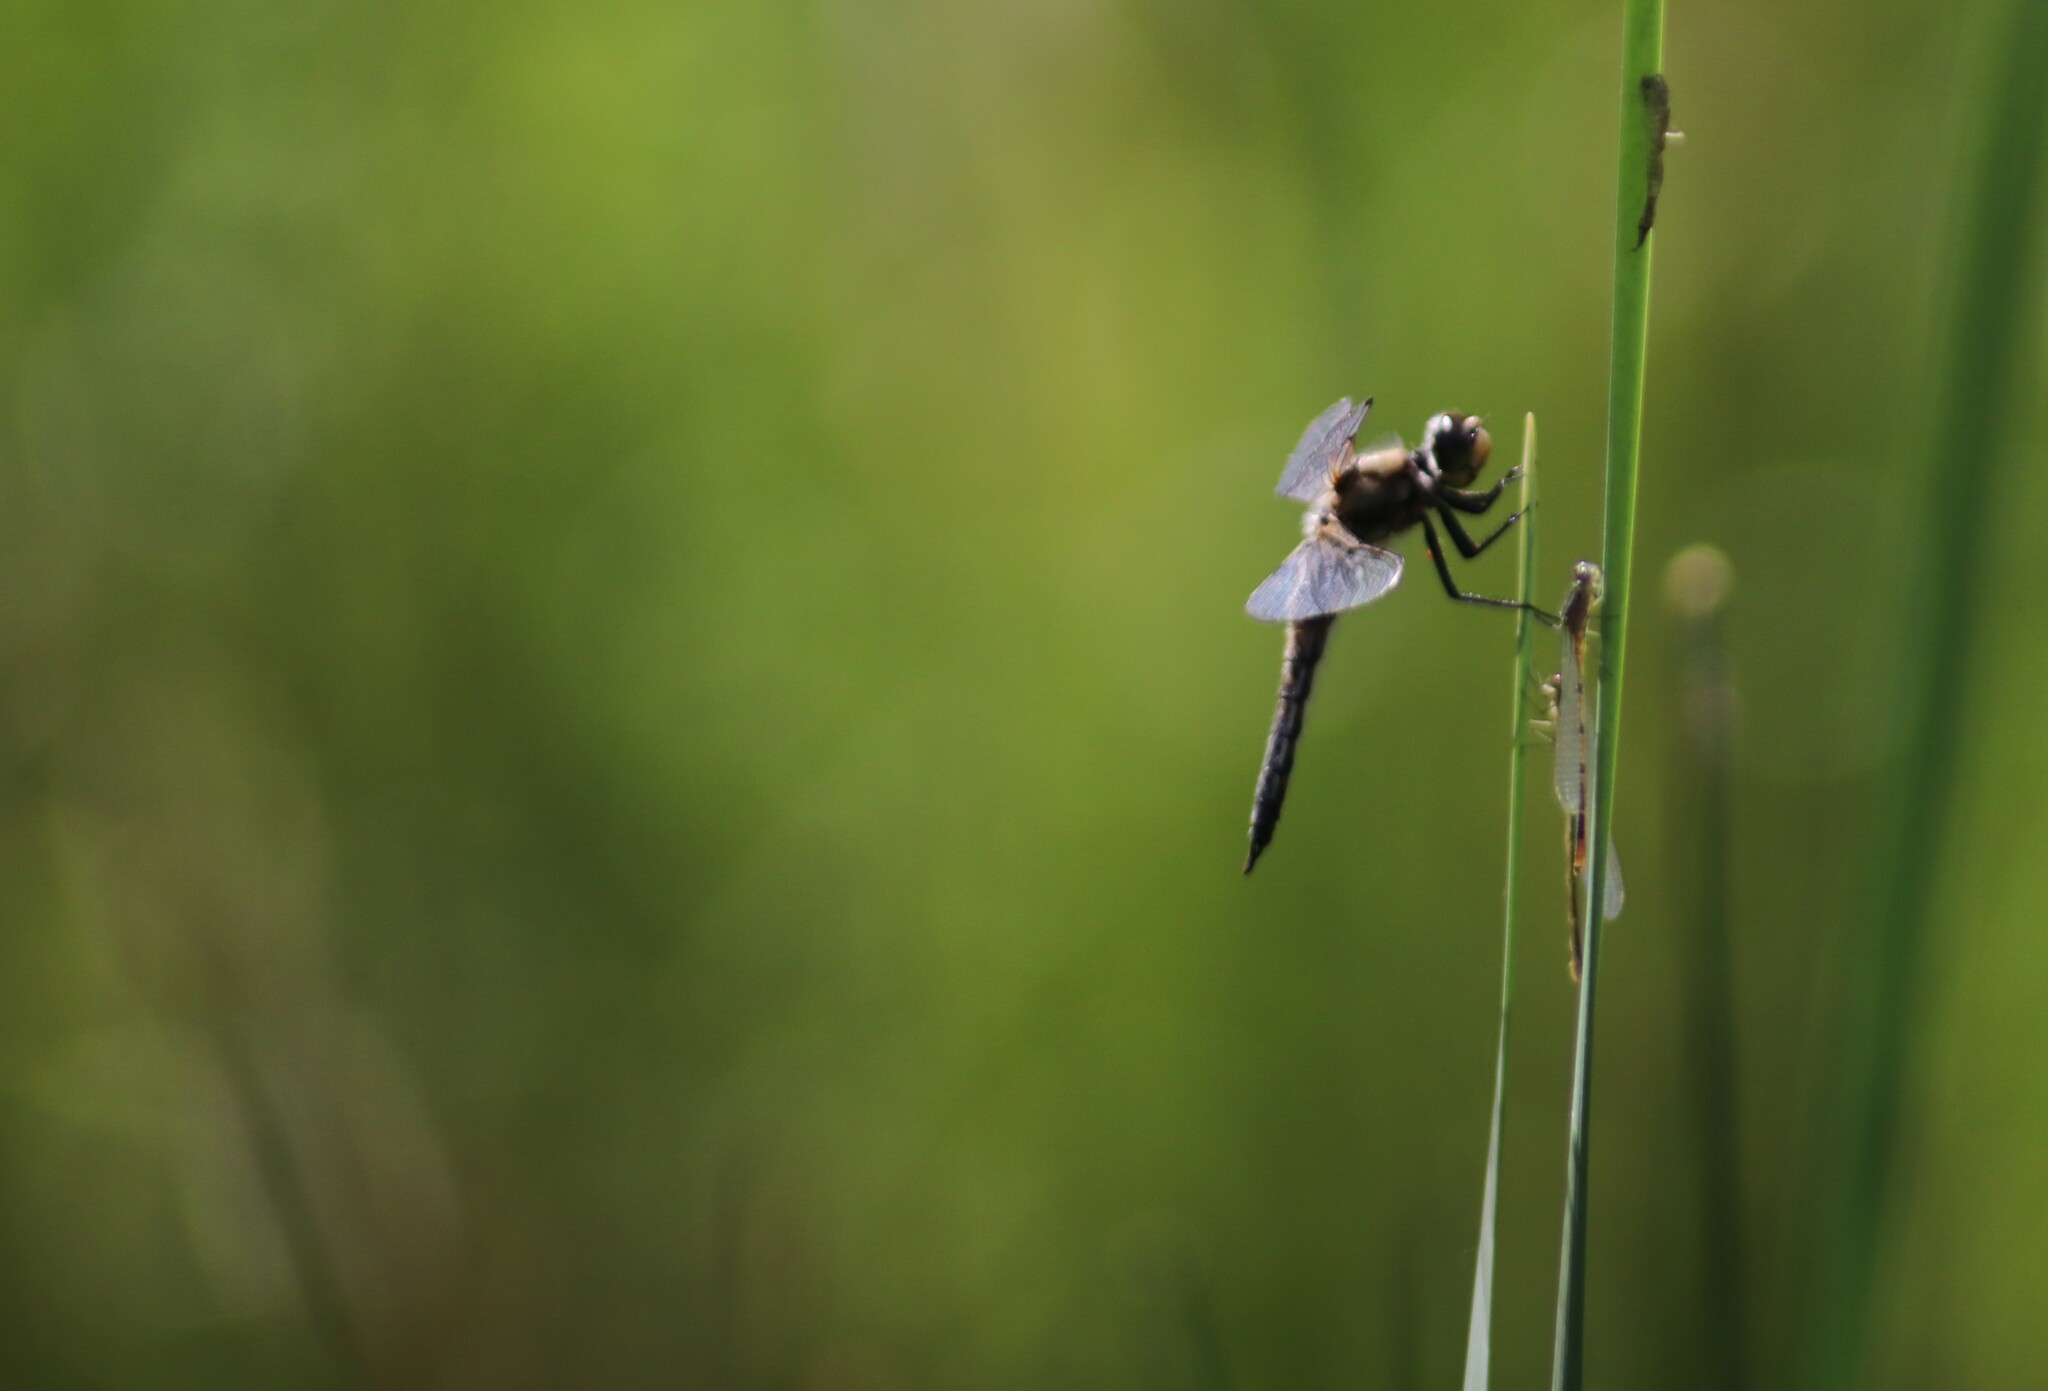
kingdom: Animalia
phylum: Arthropoda
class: Insecta
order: Odonata
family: Libellulidae
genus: Libellula
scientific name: Libellula quadrimaculata
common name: Four-spotted chaser
